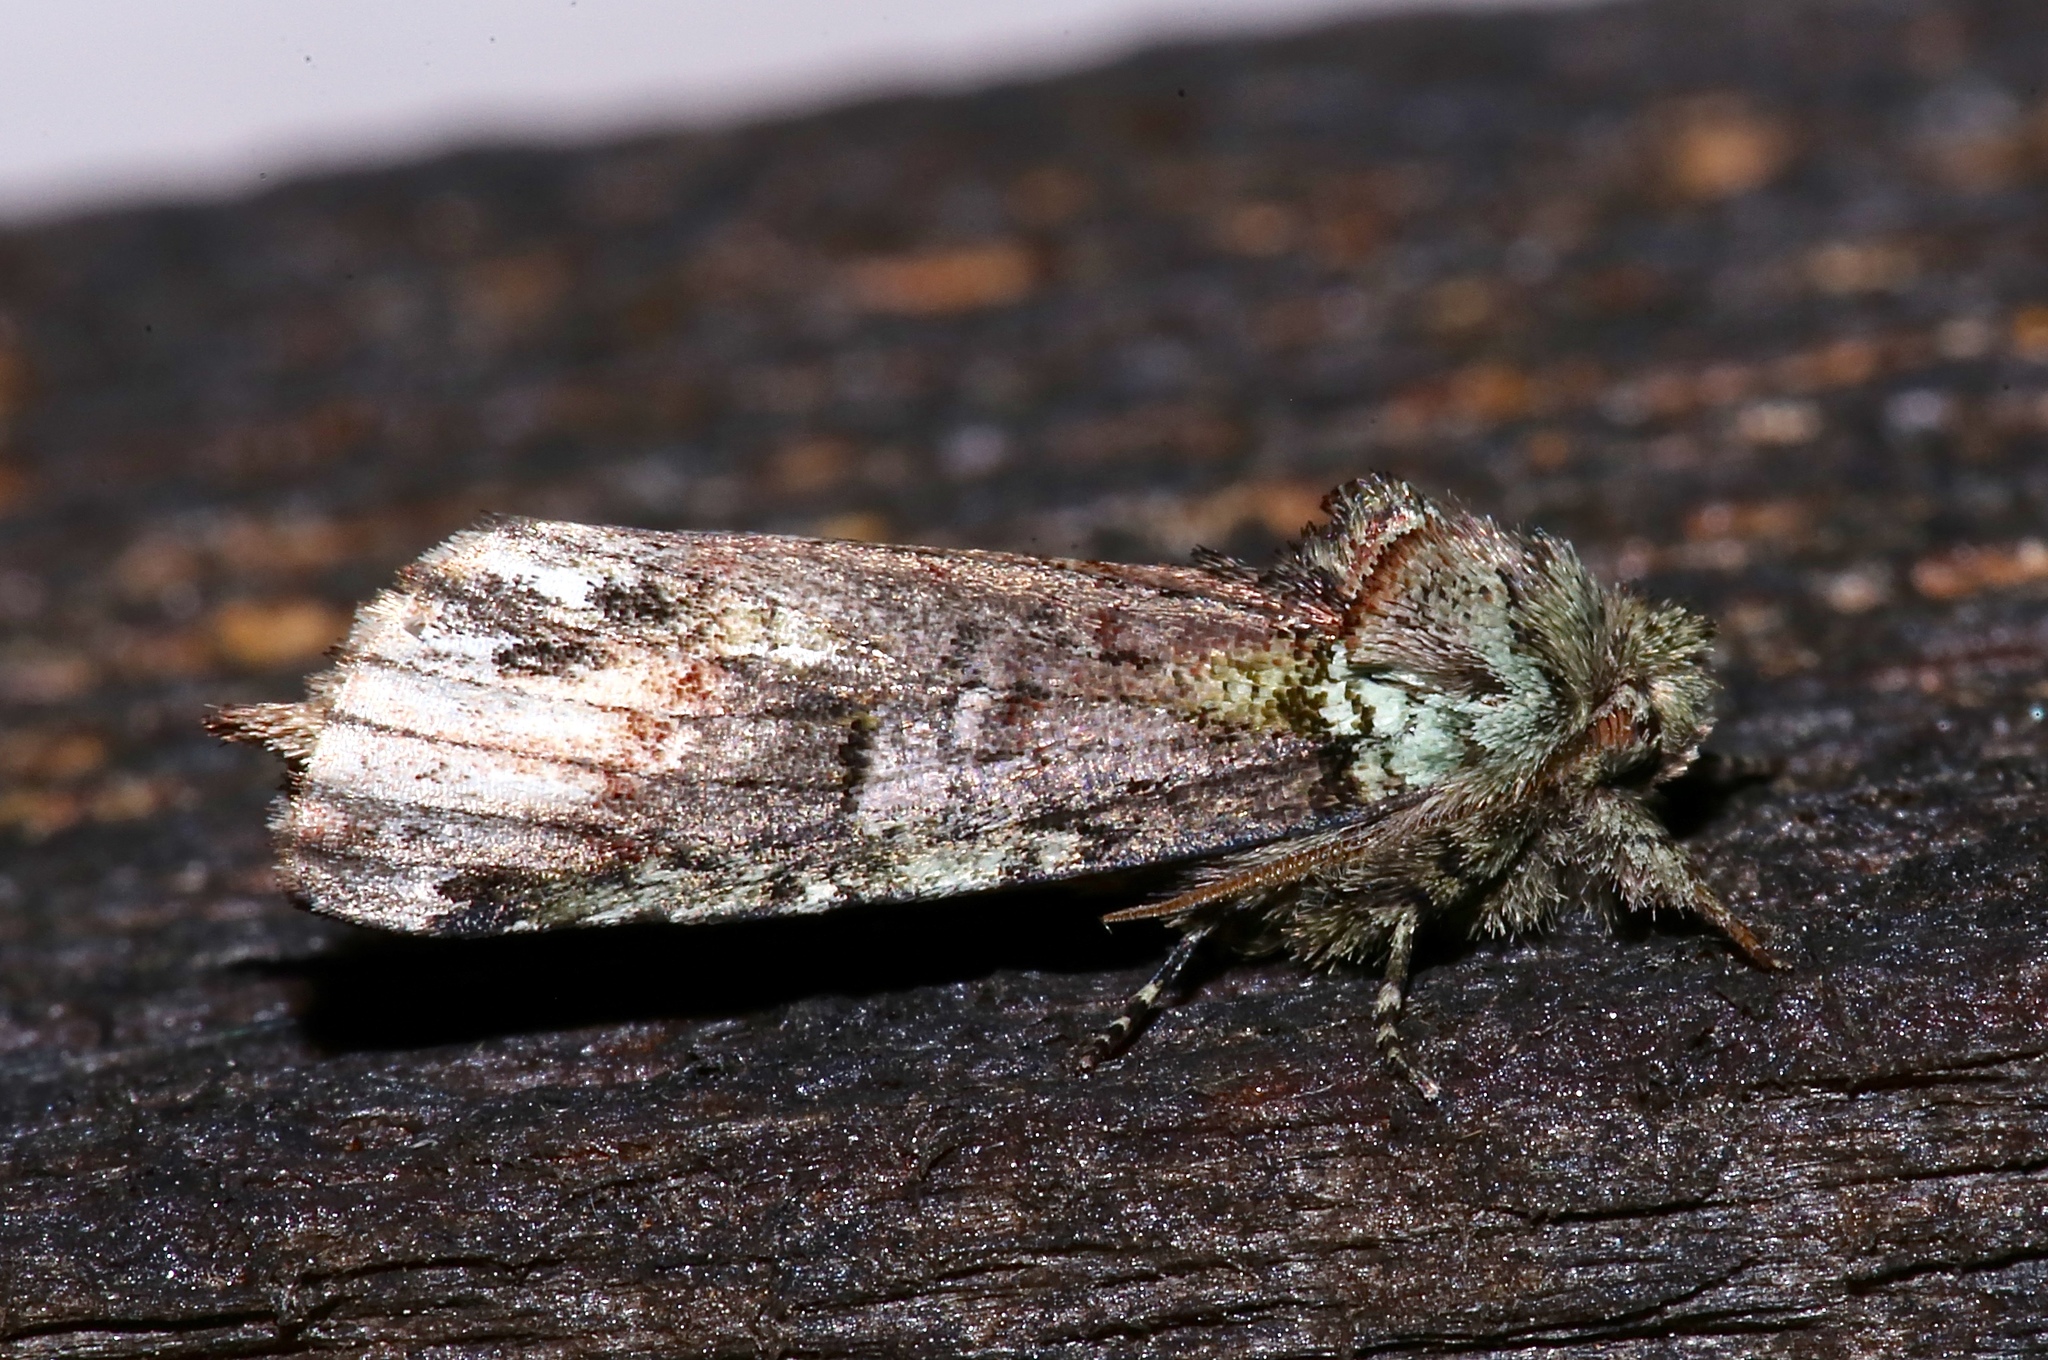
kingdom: Animalia
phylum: Arthropoda
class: Insecta
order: Lepidoptera
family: Notodontidae
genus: Schizura
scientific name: Schizura
